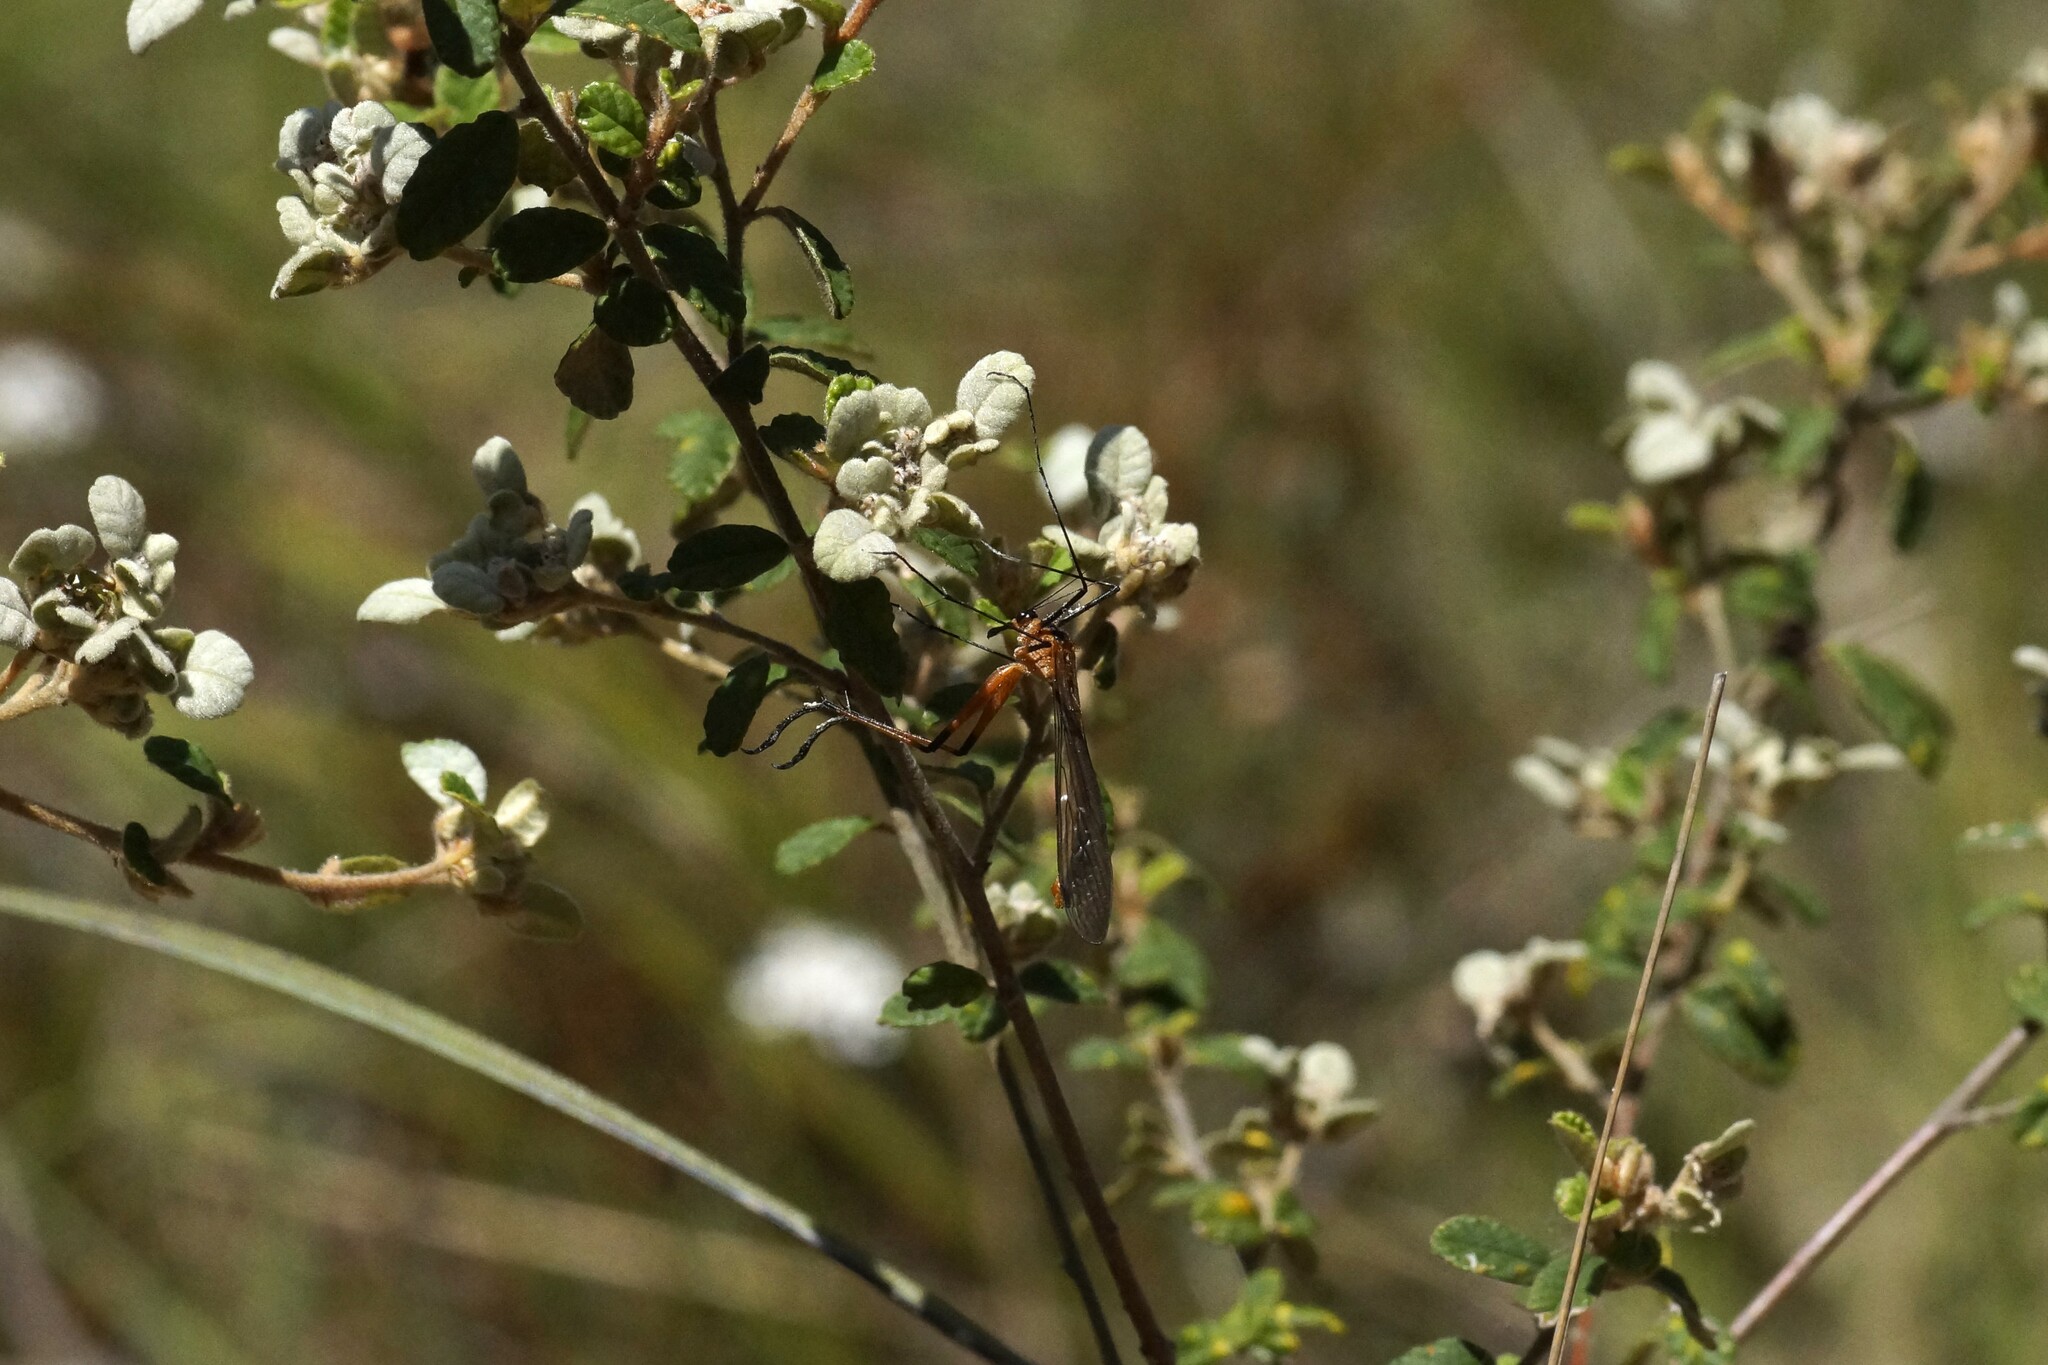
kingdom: Animalia
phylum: Arthropoda
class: Insecta
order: Mecoptera
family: Bittacidae
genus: Harpobittacus
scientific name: Harpobittacus australis
